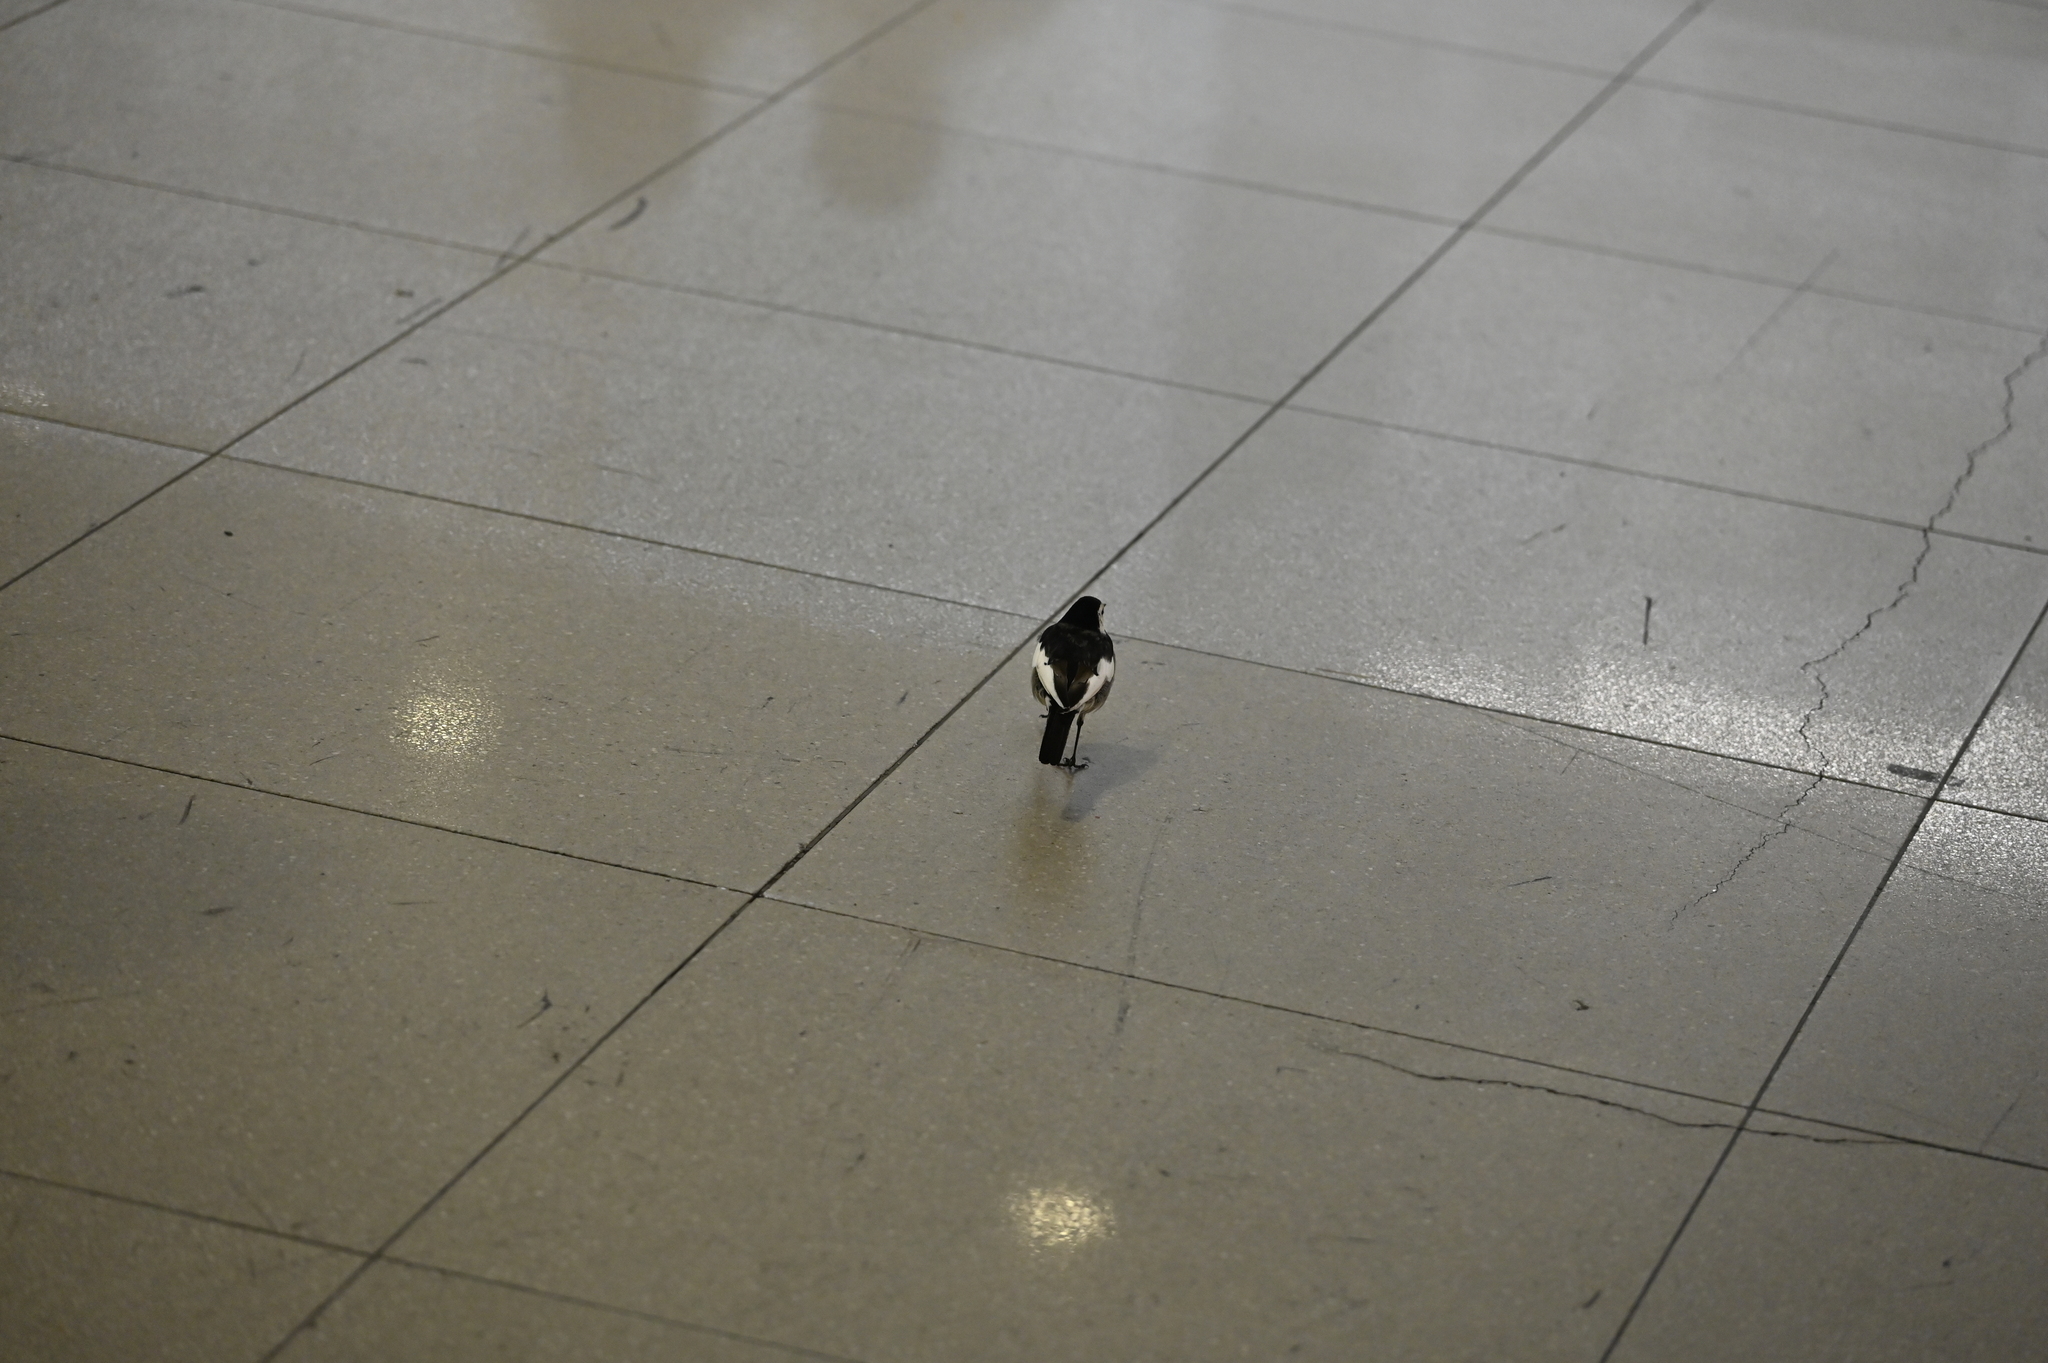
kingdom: Animalia
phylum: Chordata
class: Aves
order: Passeriformes
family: Motacillidae
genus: Motacilla
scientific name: Motacilla alba
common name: White wagtail
